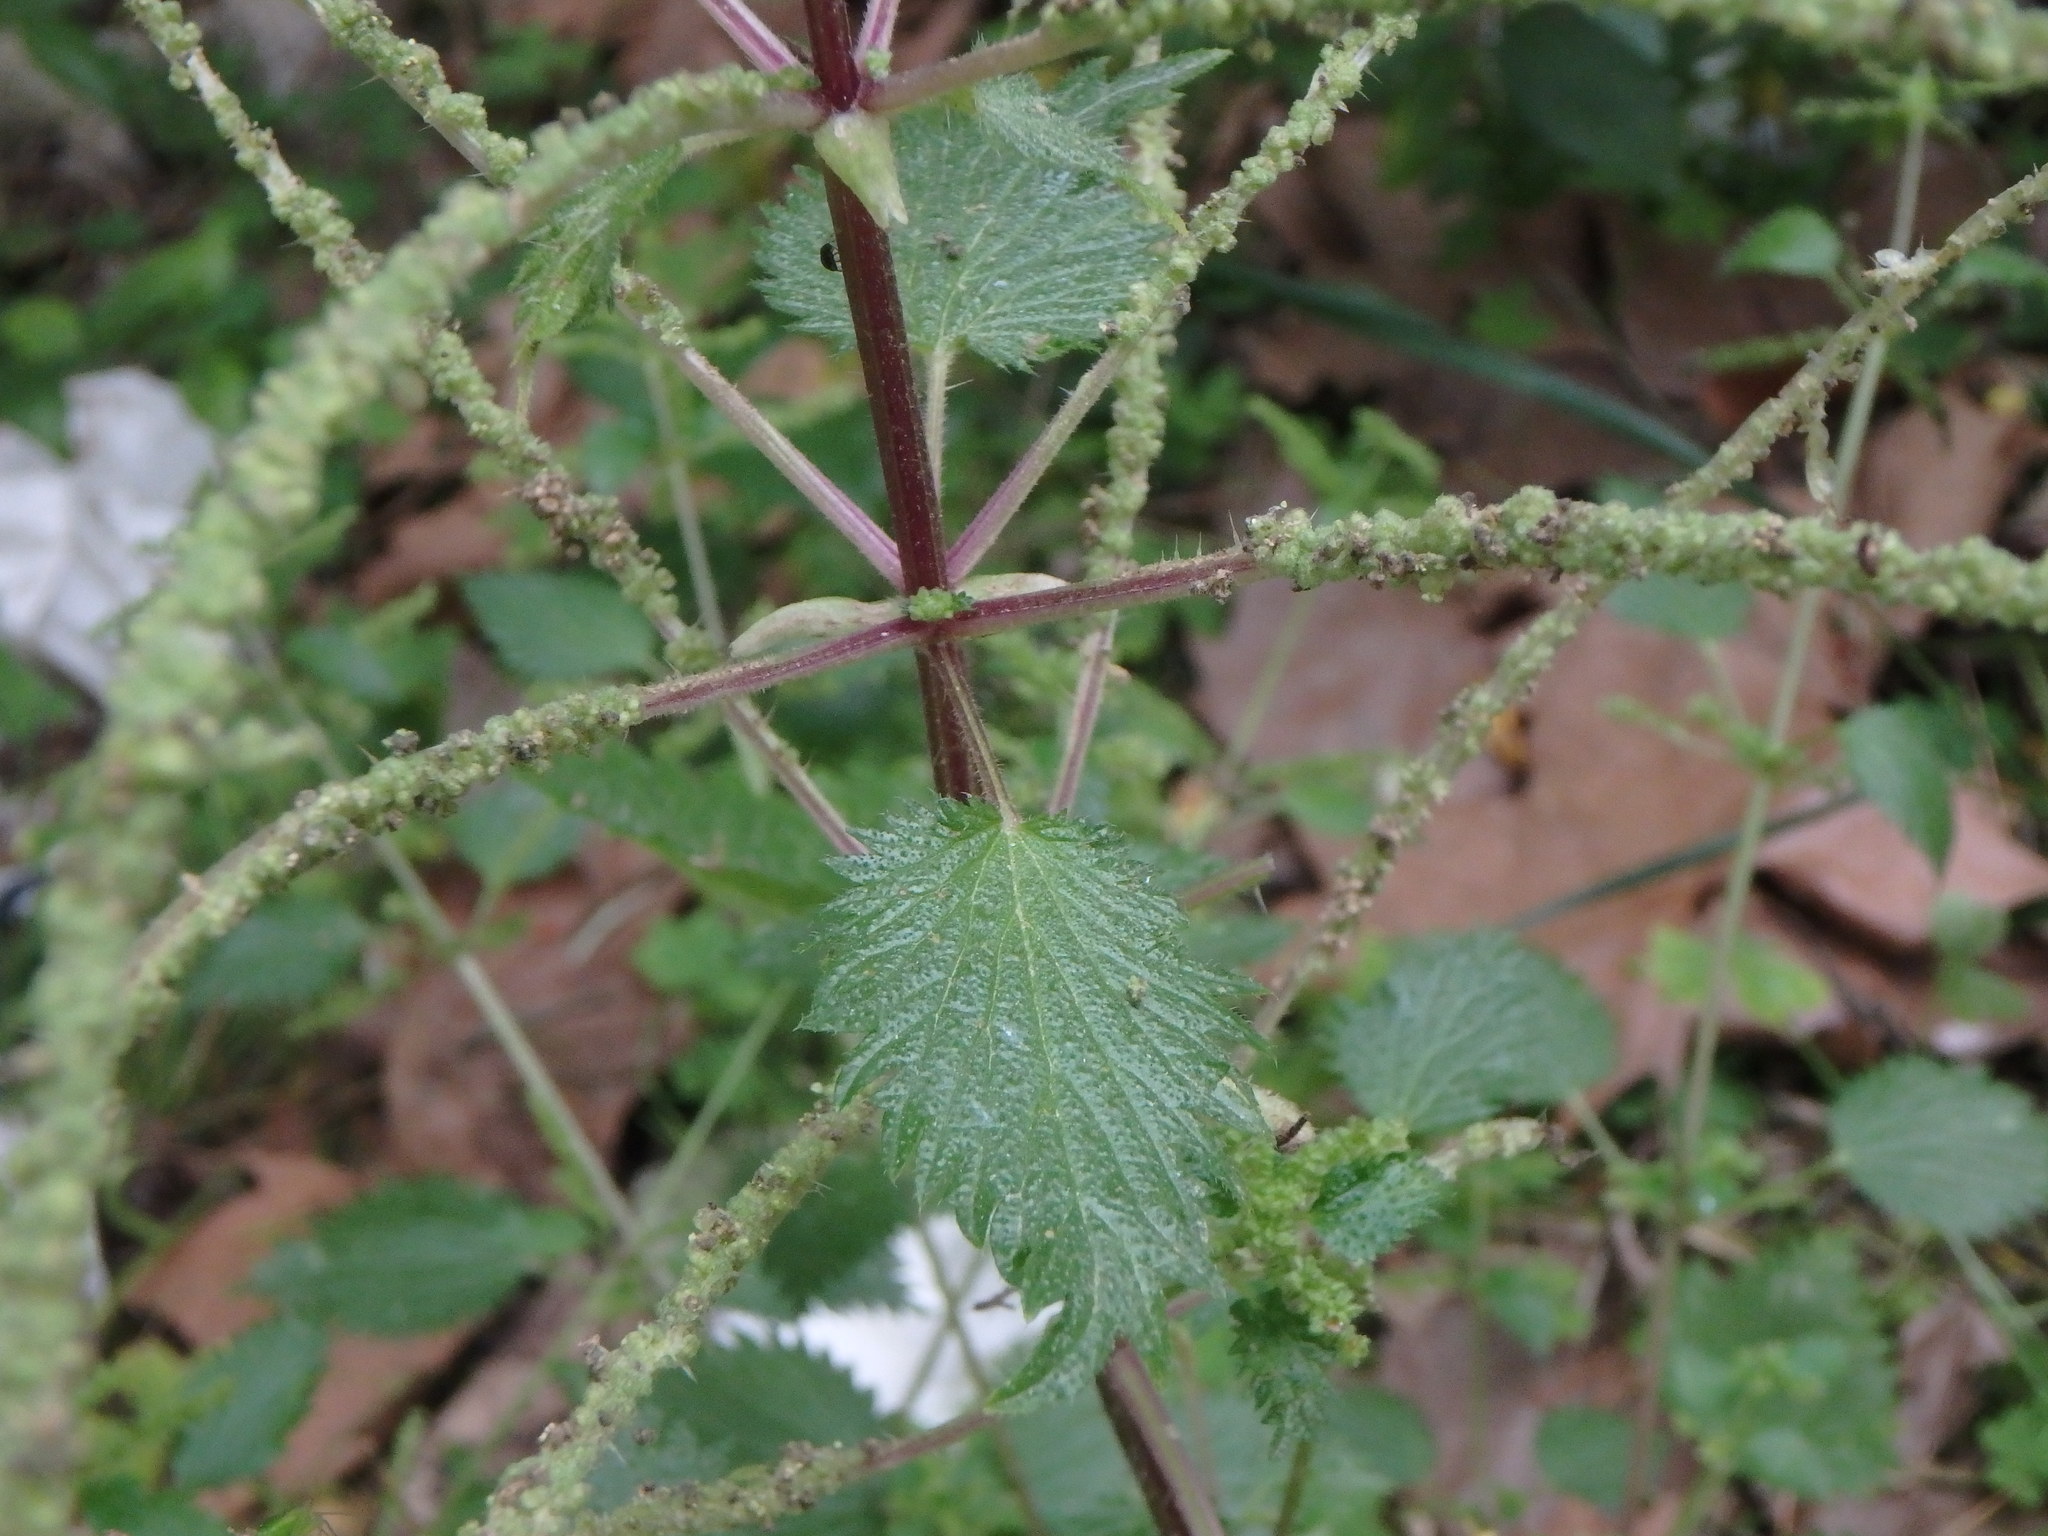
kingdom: Plantae
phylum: Tracheophyta
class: Magnoliopsida
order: Rosales
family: Urticaceae
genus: Urtica
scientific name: Urtica membranacea
